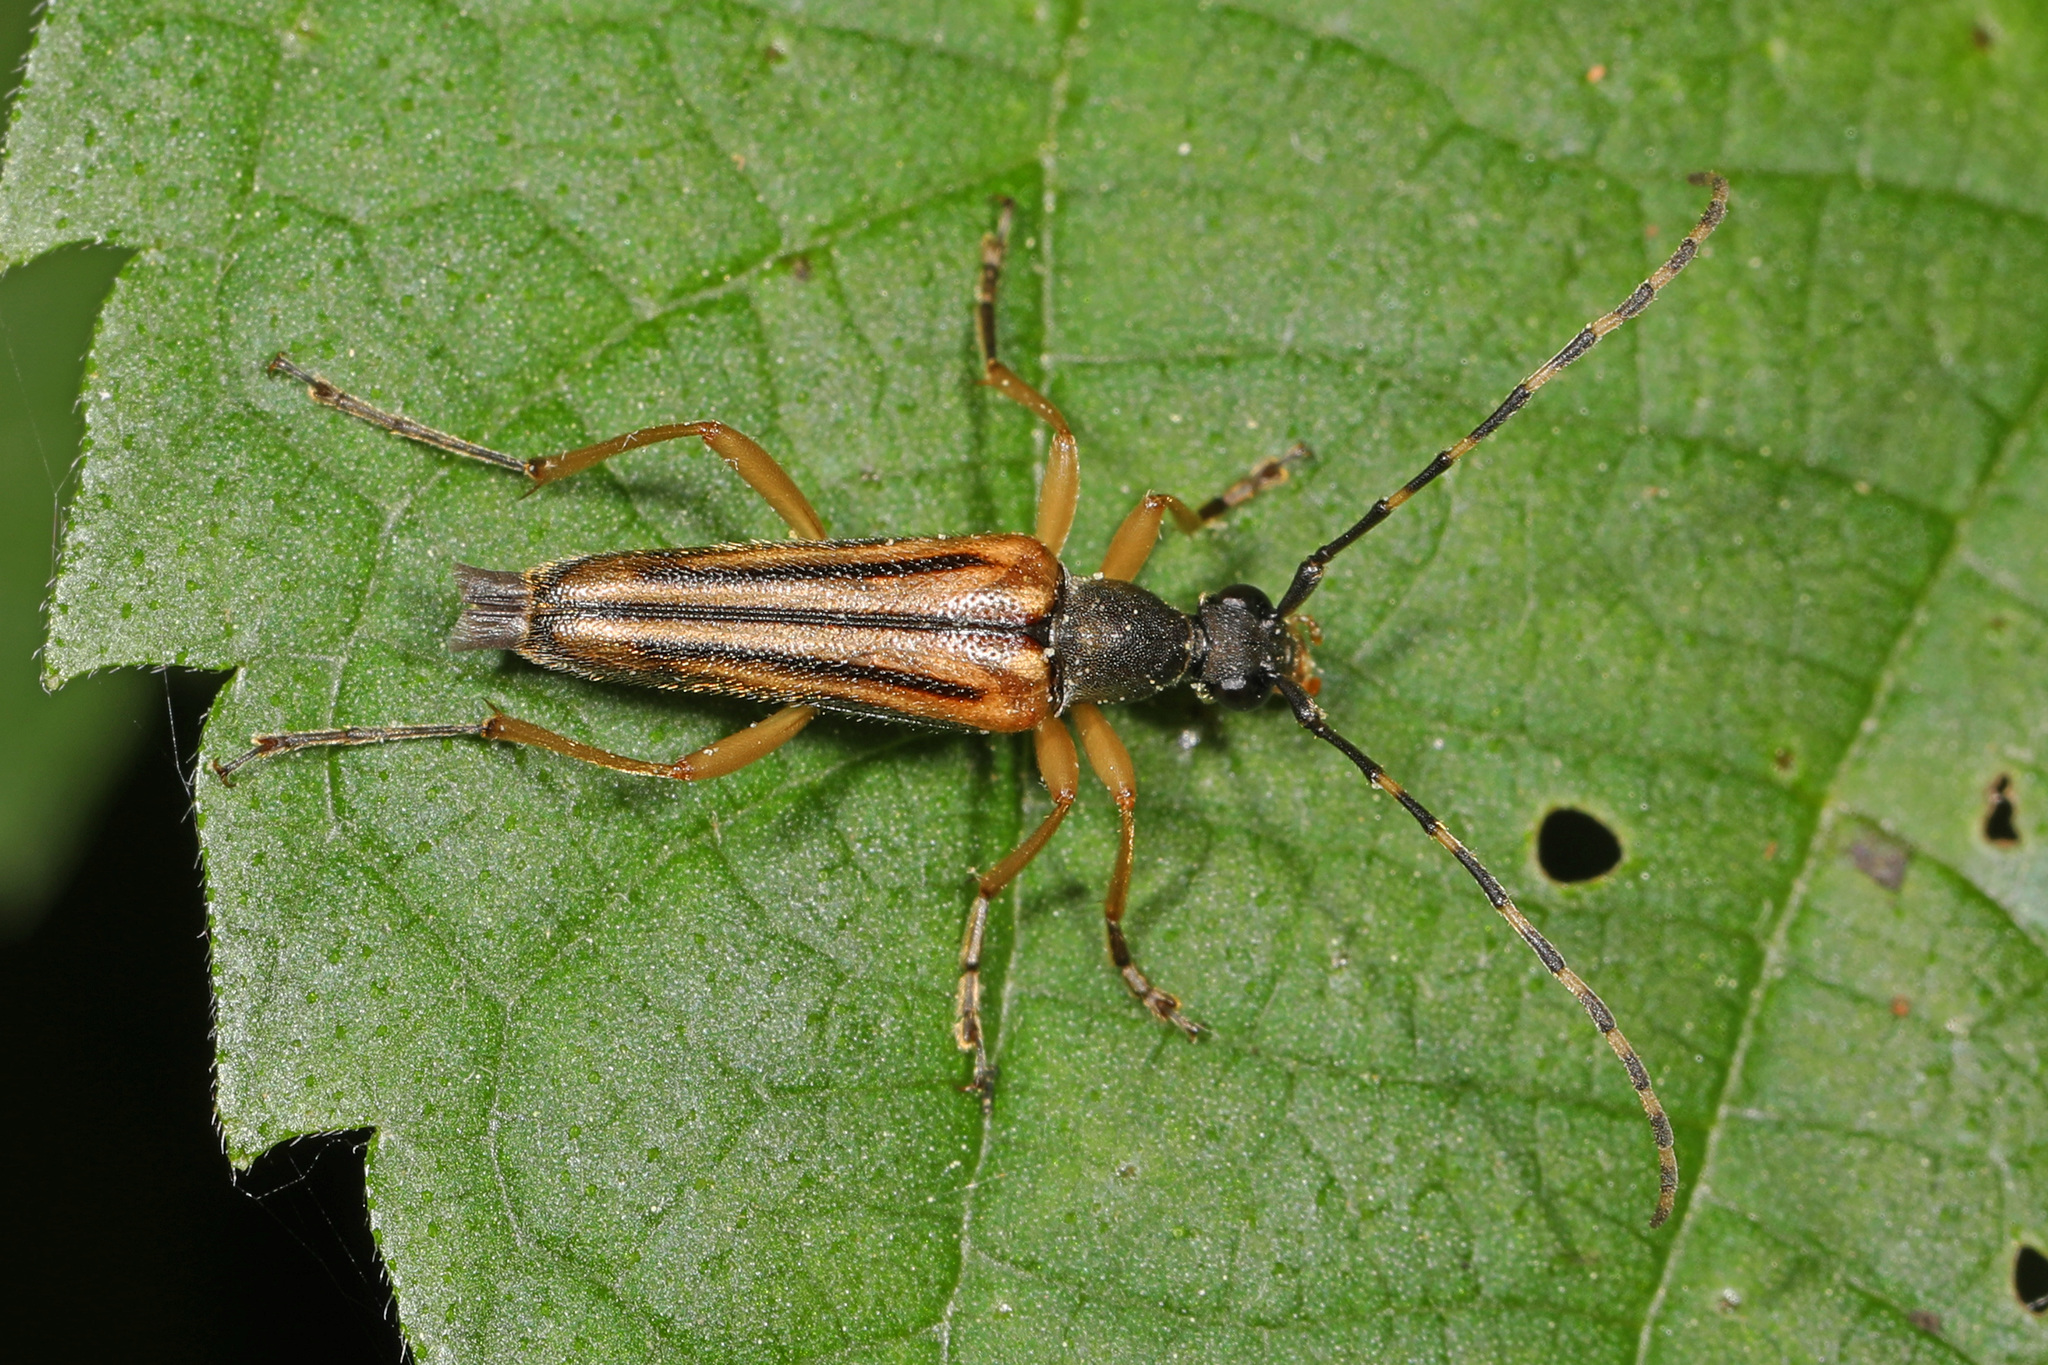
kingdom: Animalia
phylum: Arthropoda
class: Insecta
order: Coleoptera
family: Cerambycidae
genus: Analeptura
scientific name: Analeptura lineola
